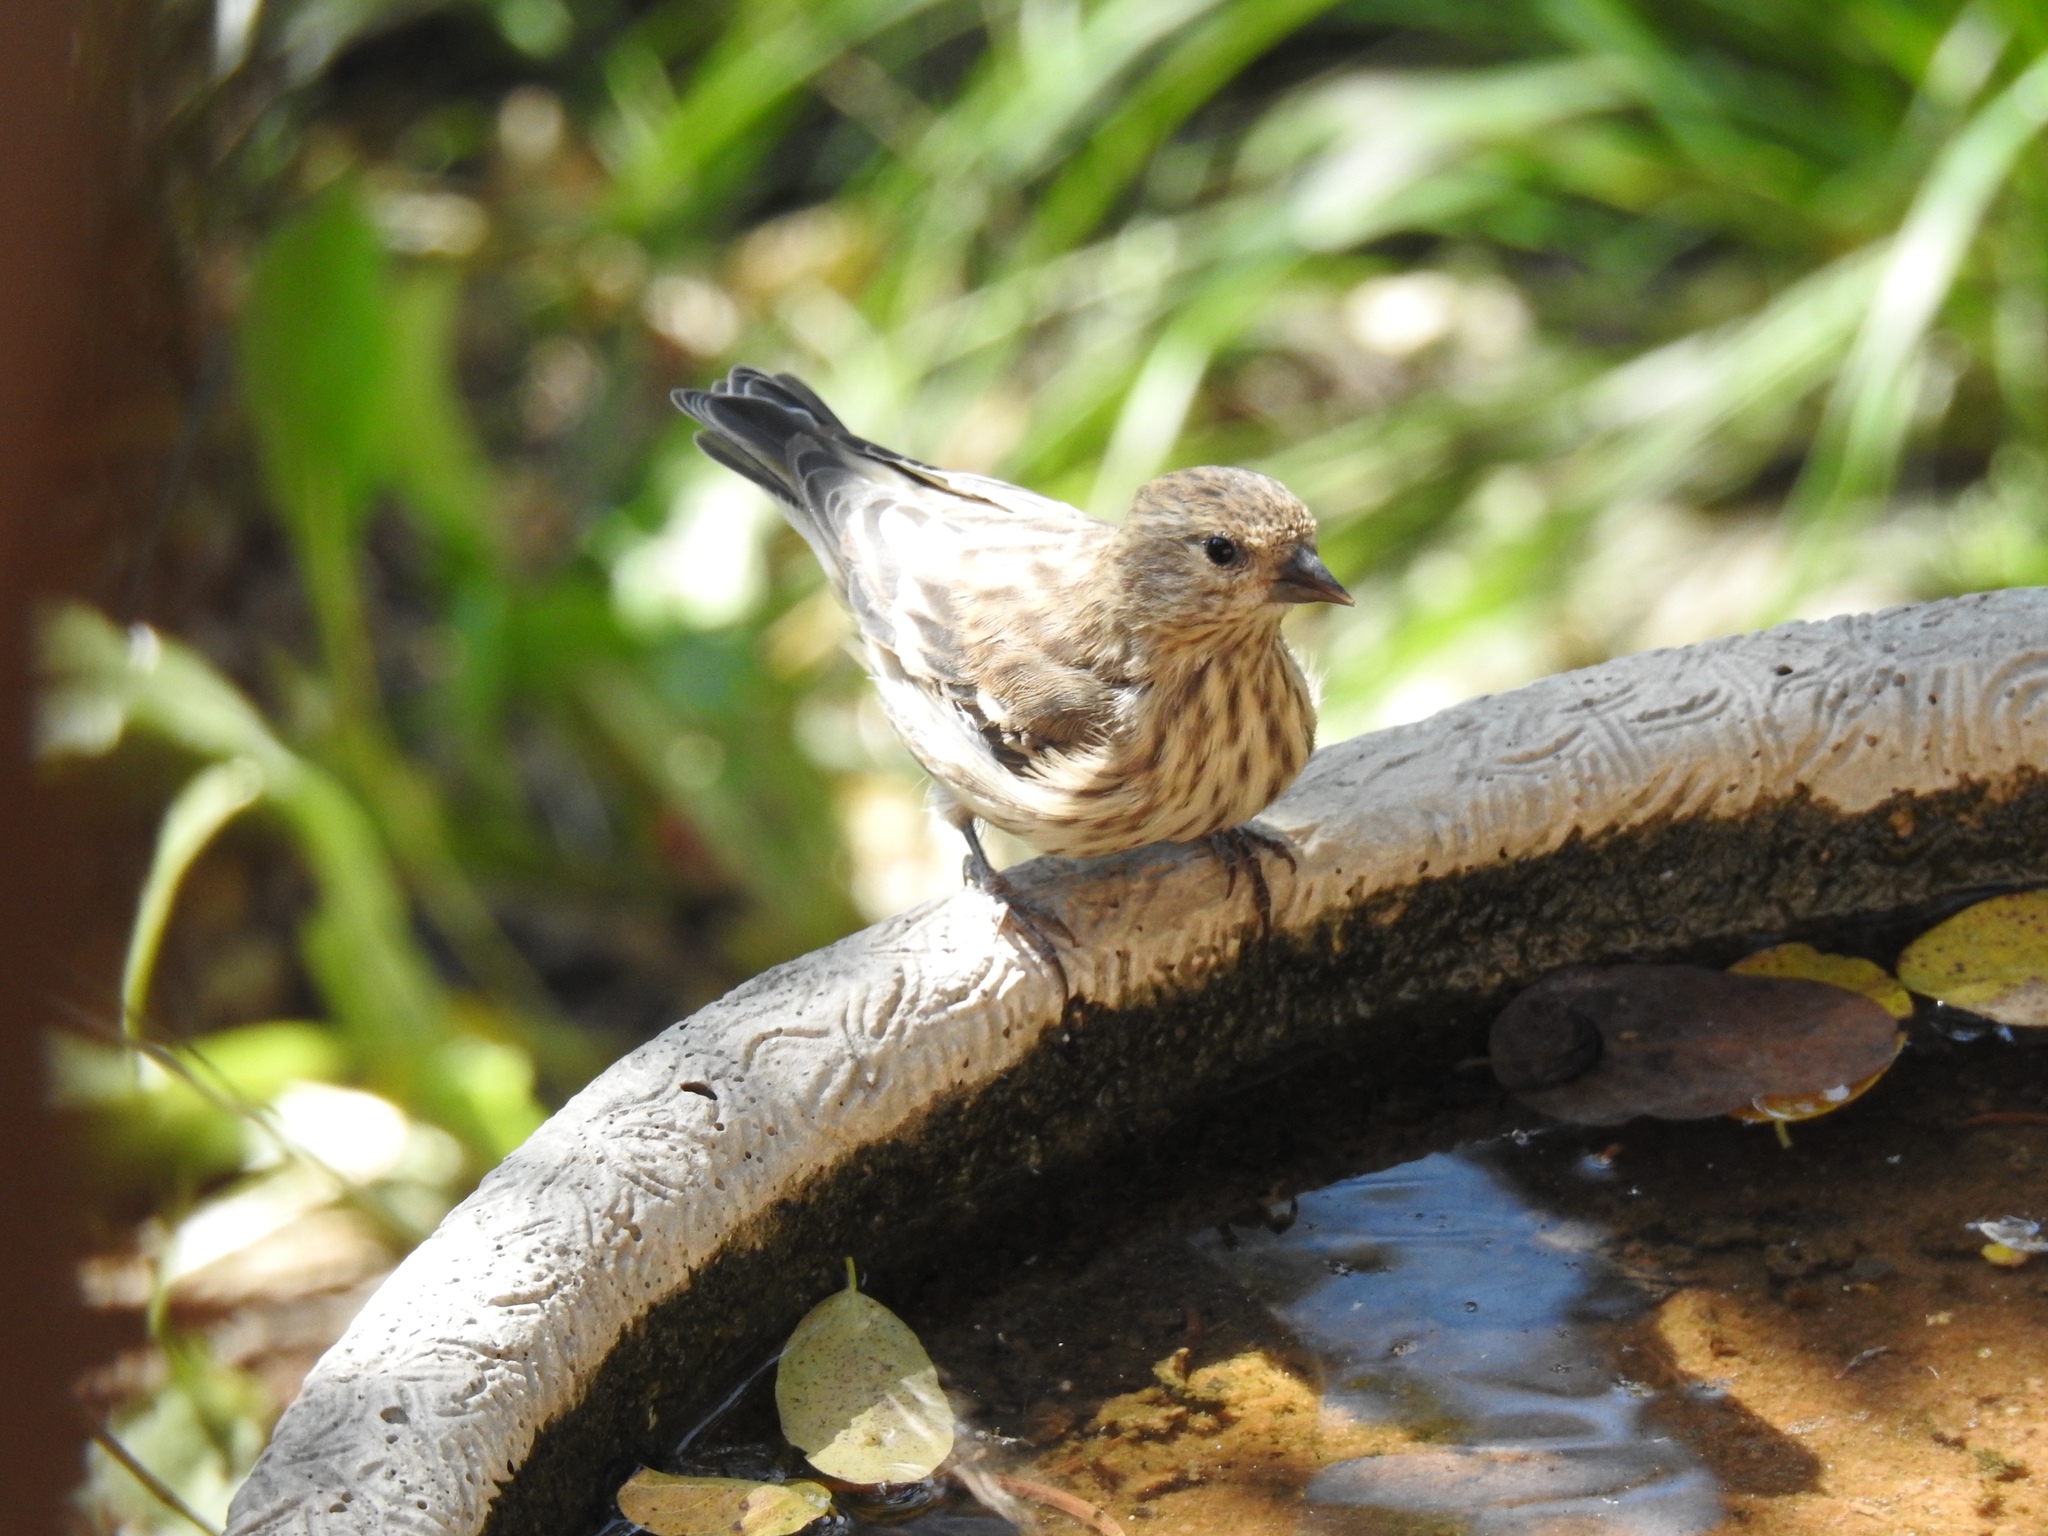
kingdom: Animalia
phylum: Chordata
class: Aves
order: Passeriformes
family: Fringillidae
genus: Spinus
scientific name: Spinus pinus
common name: Pine siskin
